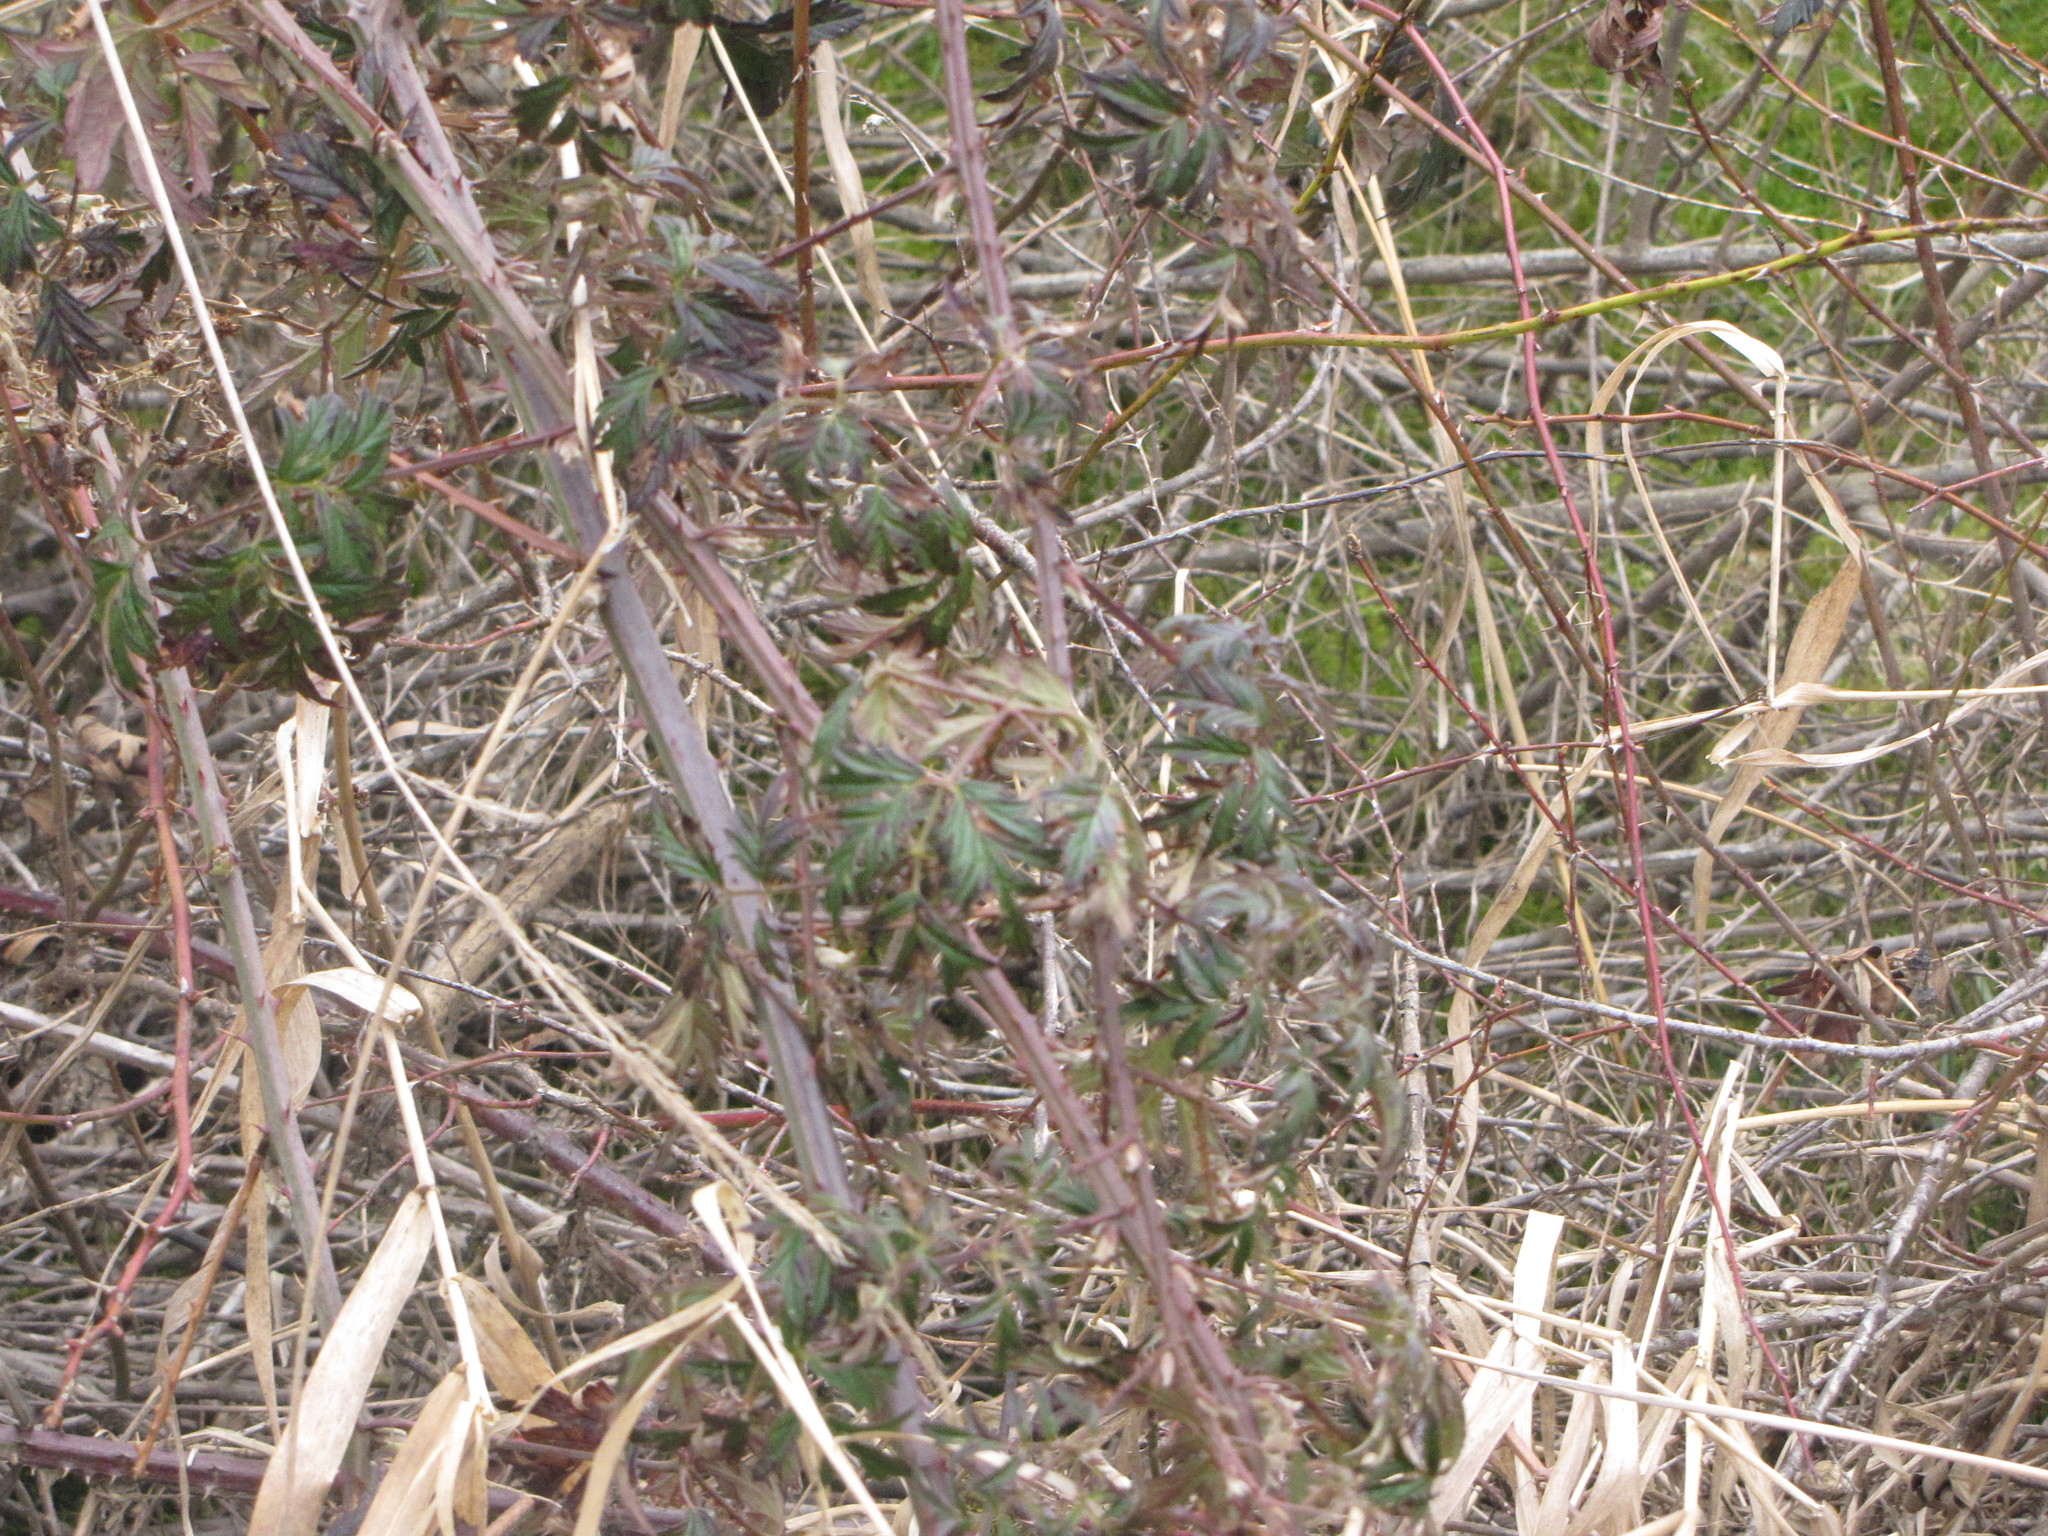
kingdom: Plantae
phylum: Tracheophyta
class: Magnoliopsida
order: Rosales
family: Rosaceae
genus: Rubus
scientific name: Rubus laciniatus
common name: Evergreen blackberry
